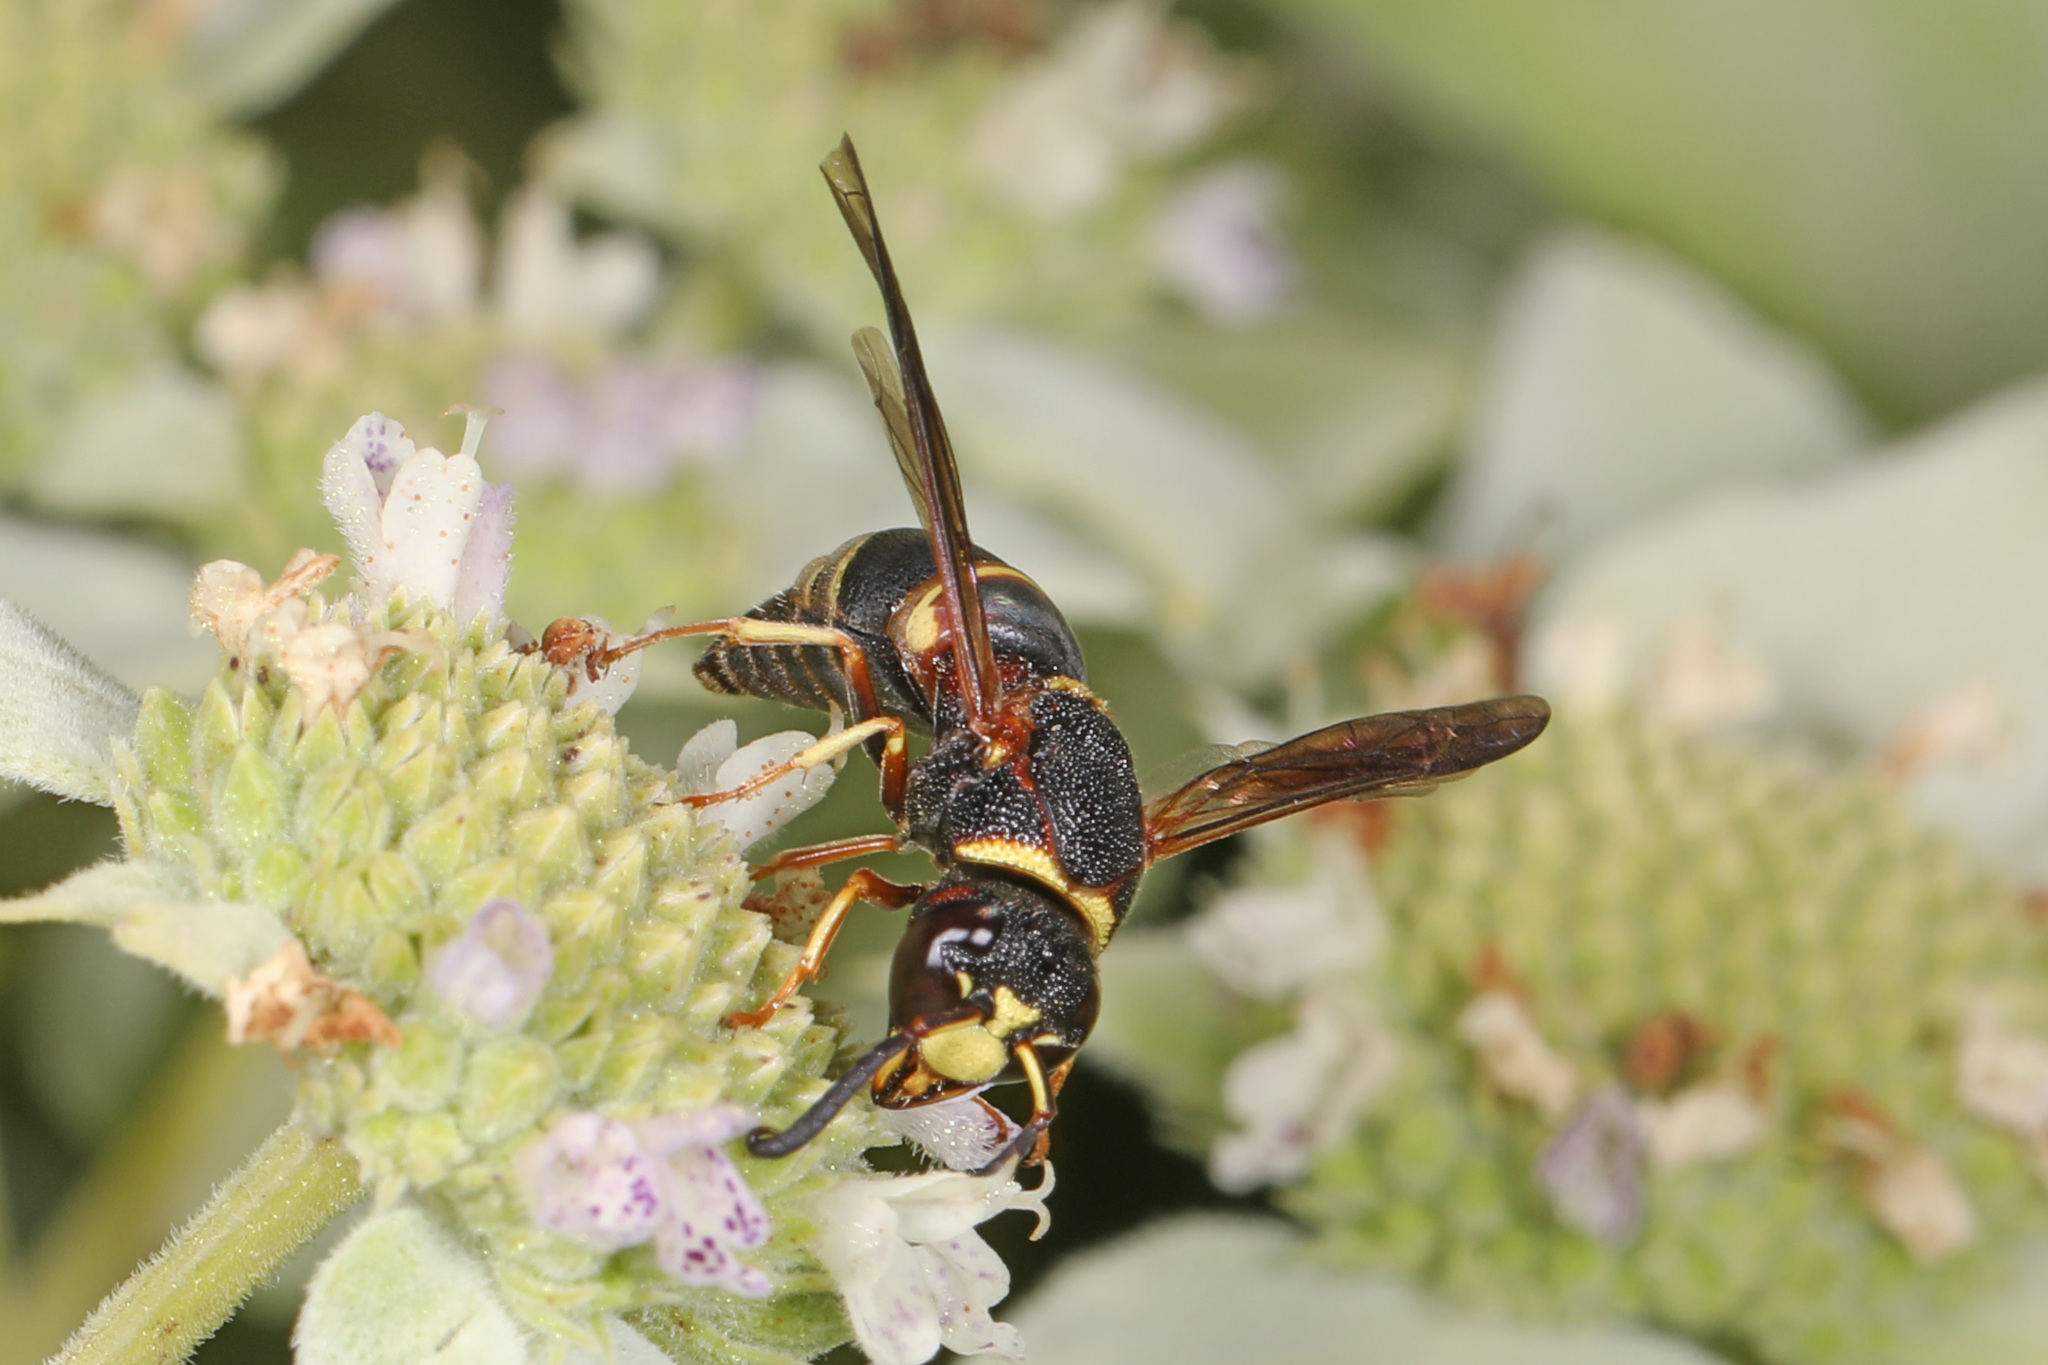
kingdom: Animalia
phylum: Arthropoda
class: Insecta
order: Hymenoptera
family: Eumenidae
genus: Euodynerus
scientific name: Euodynerus hidalgo
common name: Wasp
